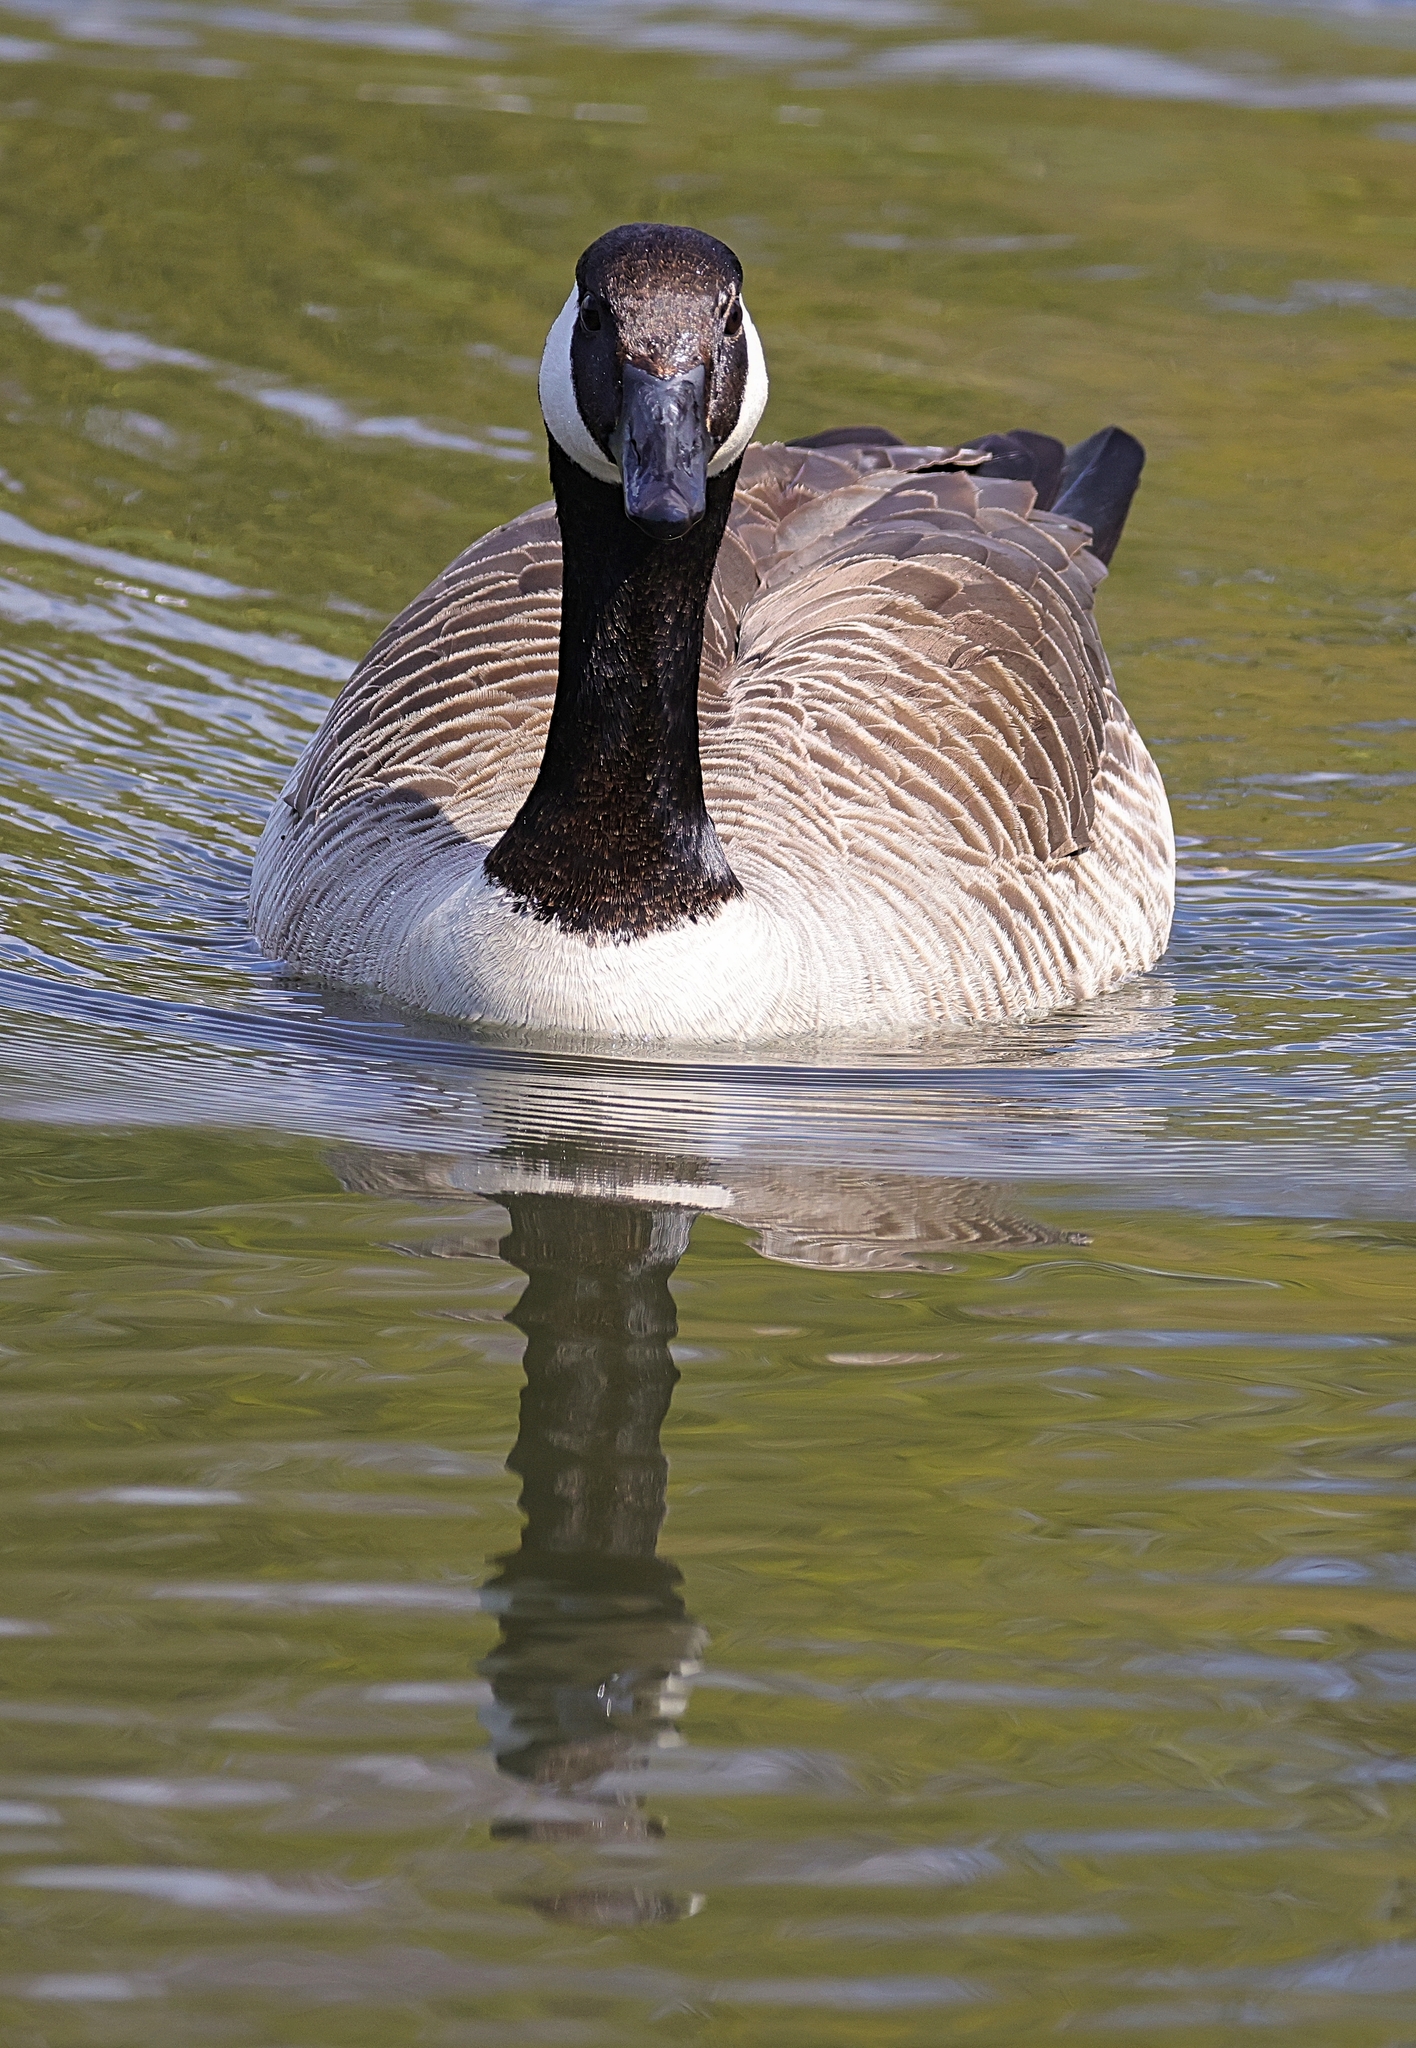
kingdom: Animalia
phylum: Chordata
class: Aves
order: Anseriformes
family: Anatidae
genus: Branta
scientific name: Branta canadensis
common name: Canada goose
